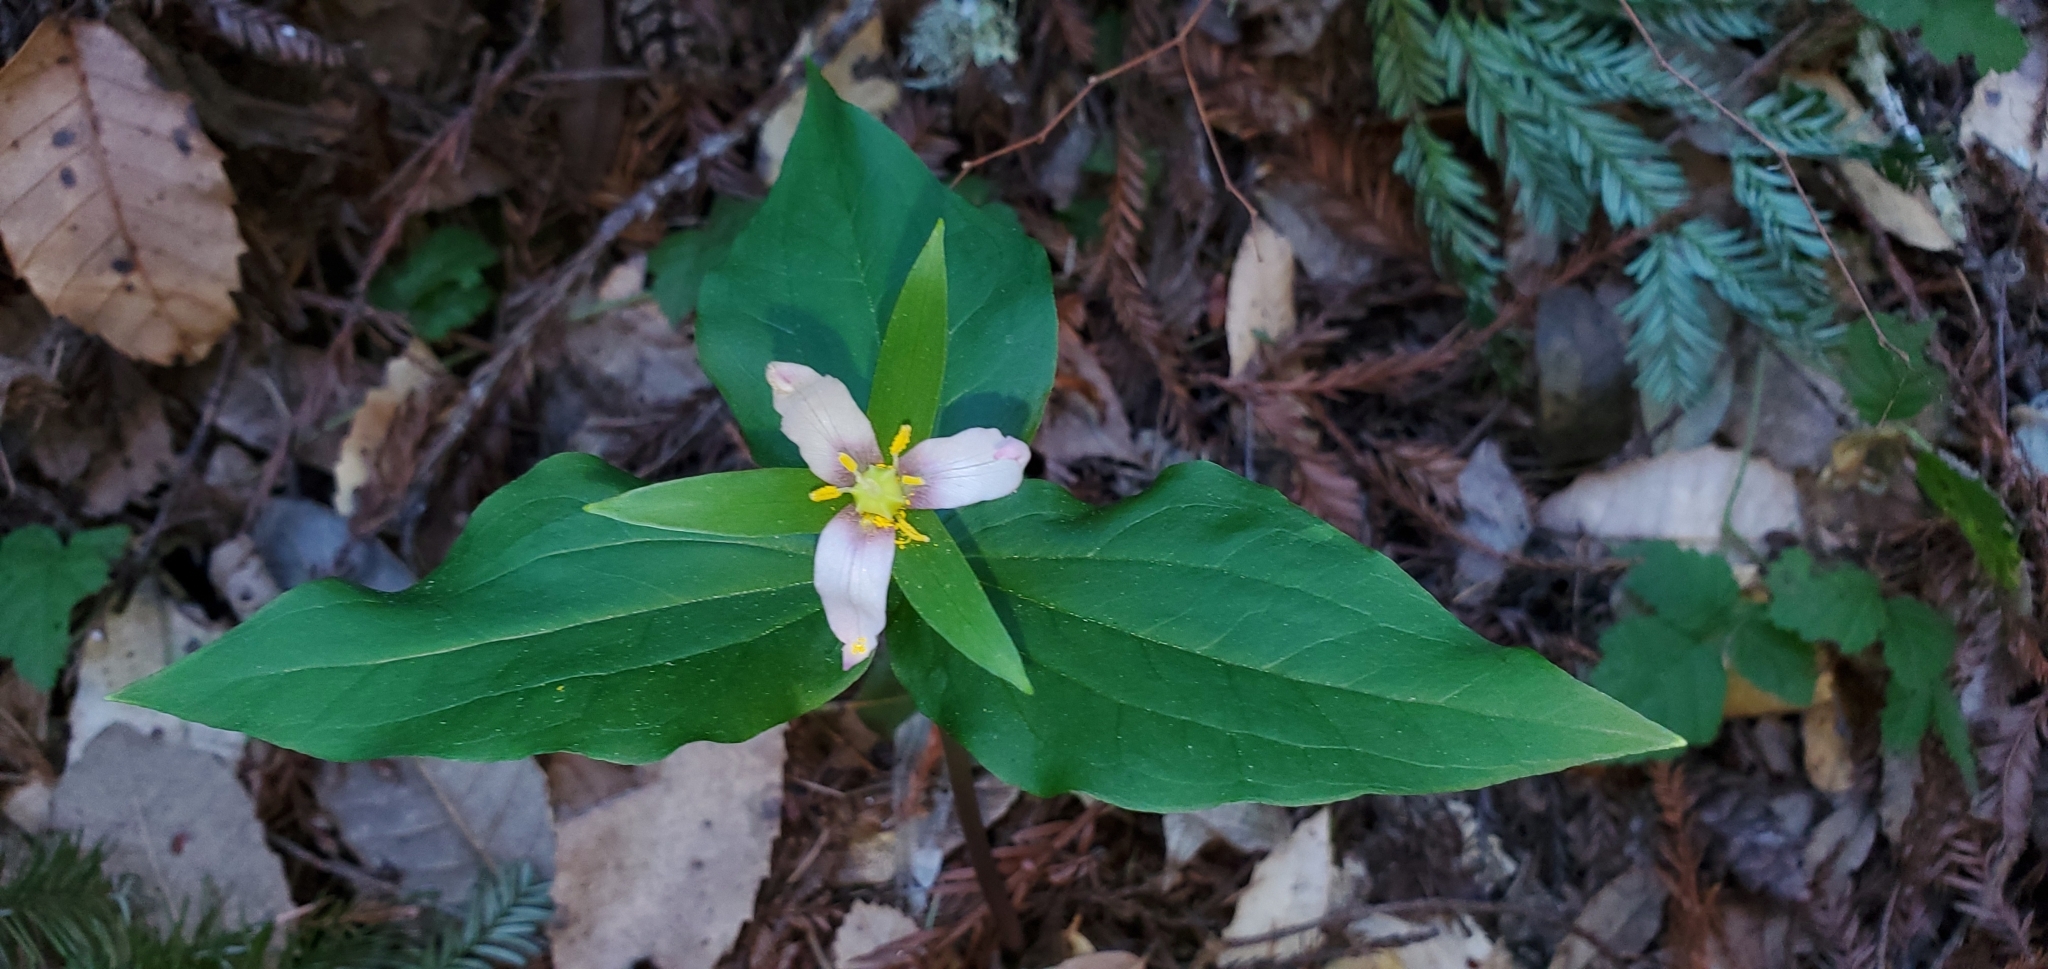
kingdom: Plantae
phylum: Tracheophyta
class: Liliopsida
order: Liliales
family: Melanthiaceae
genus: Trillium
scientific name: Trillium ovatum
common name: Pacific trillium
